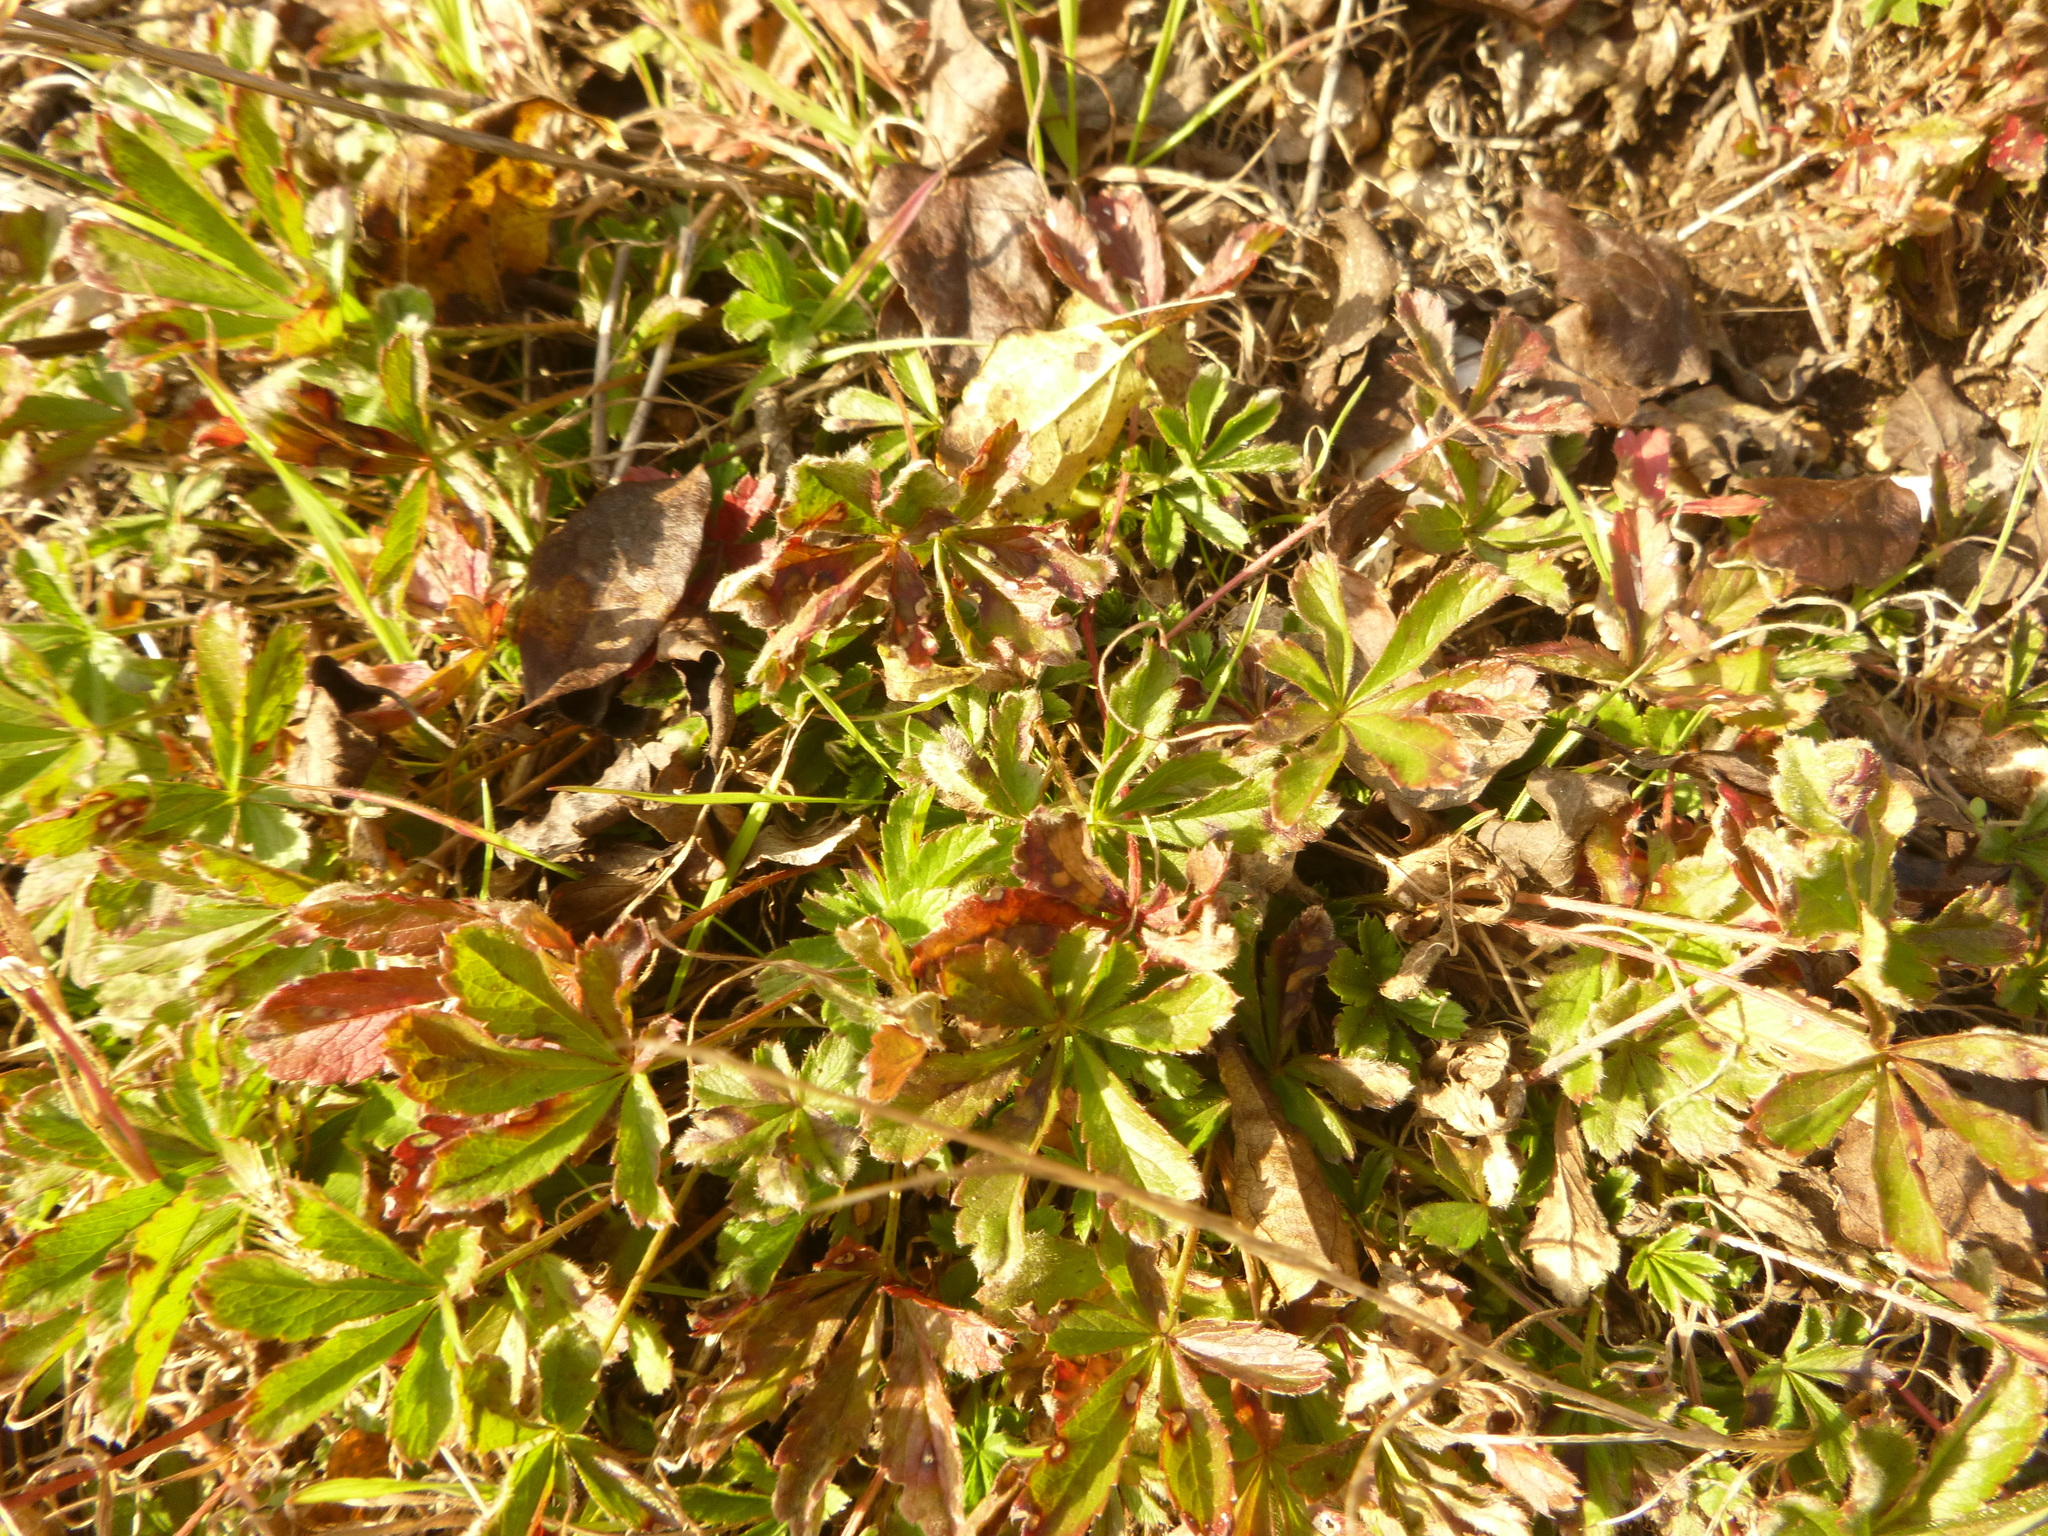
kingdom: Plantae
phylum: Tracheophyta
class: Magnoliopsida
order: Rosales
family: Rosaceae
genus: Potentilla
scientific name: Potentilla heptaphylla
